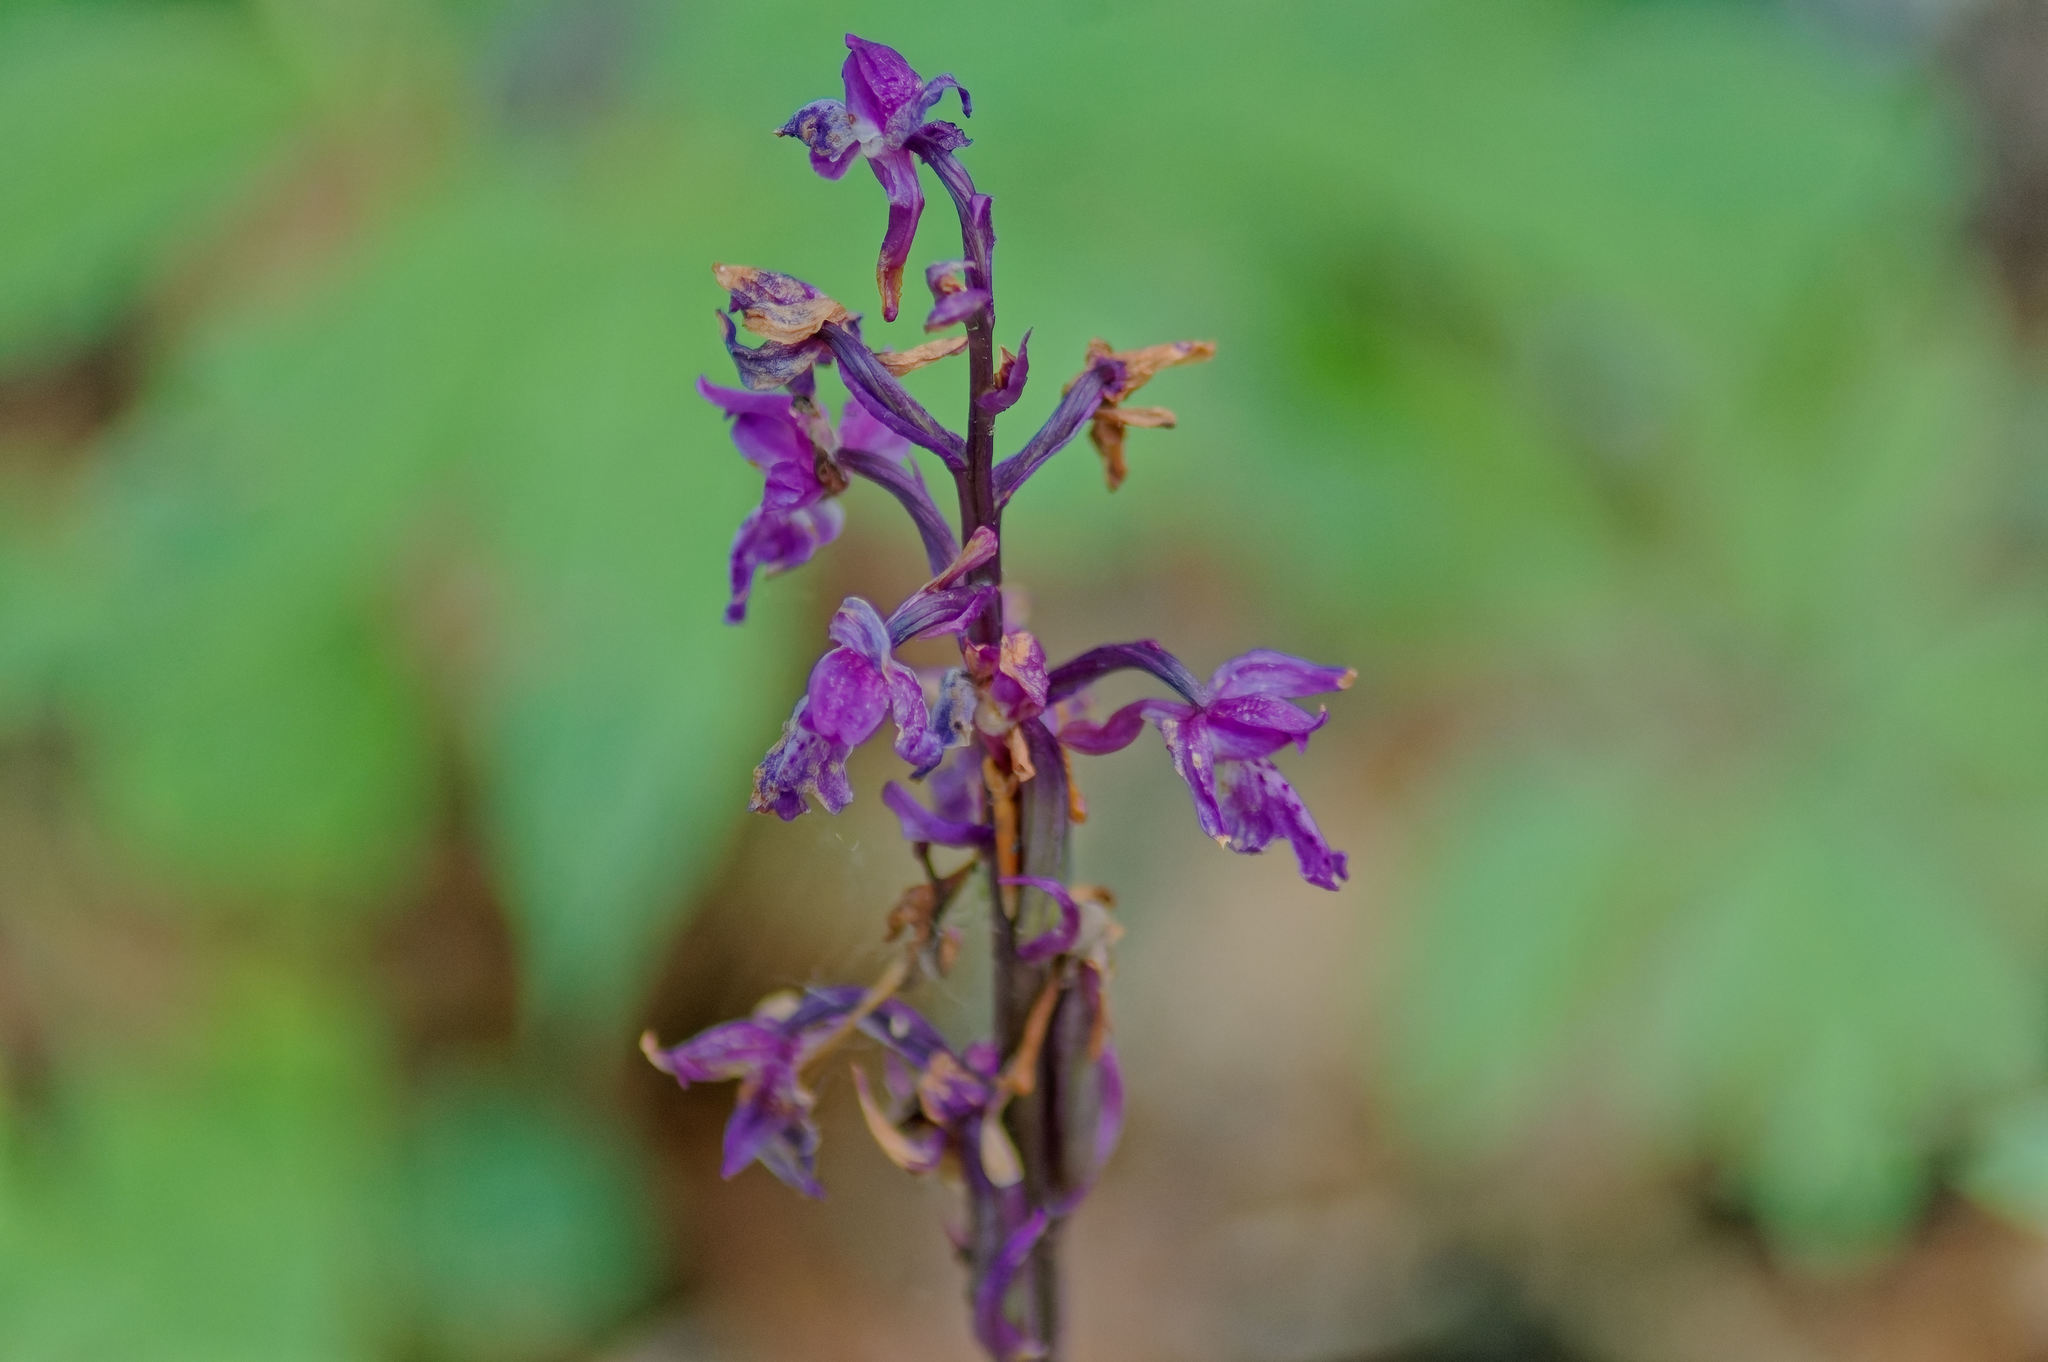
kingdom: Plantae
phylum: Tracheophyta
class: Liliopsida
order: Asparagales
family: Orchidaceae
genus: Orchis
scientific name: Orchis mascula
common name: Early-purple orchid
